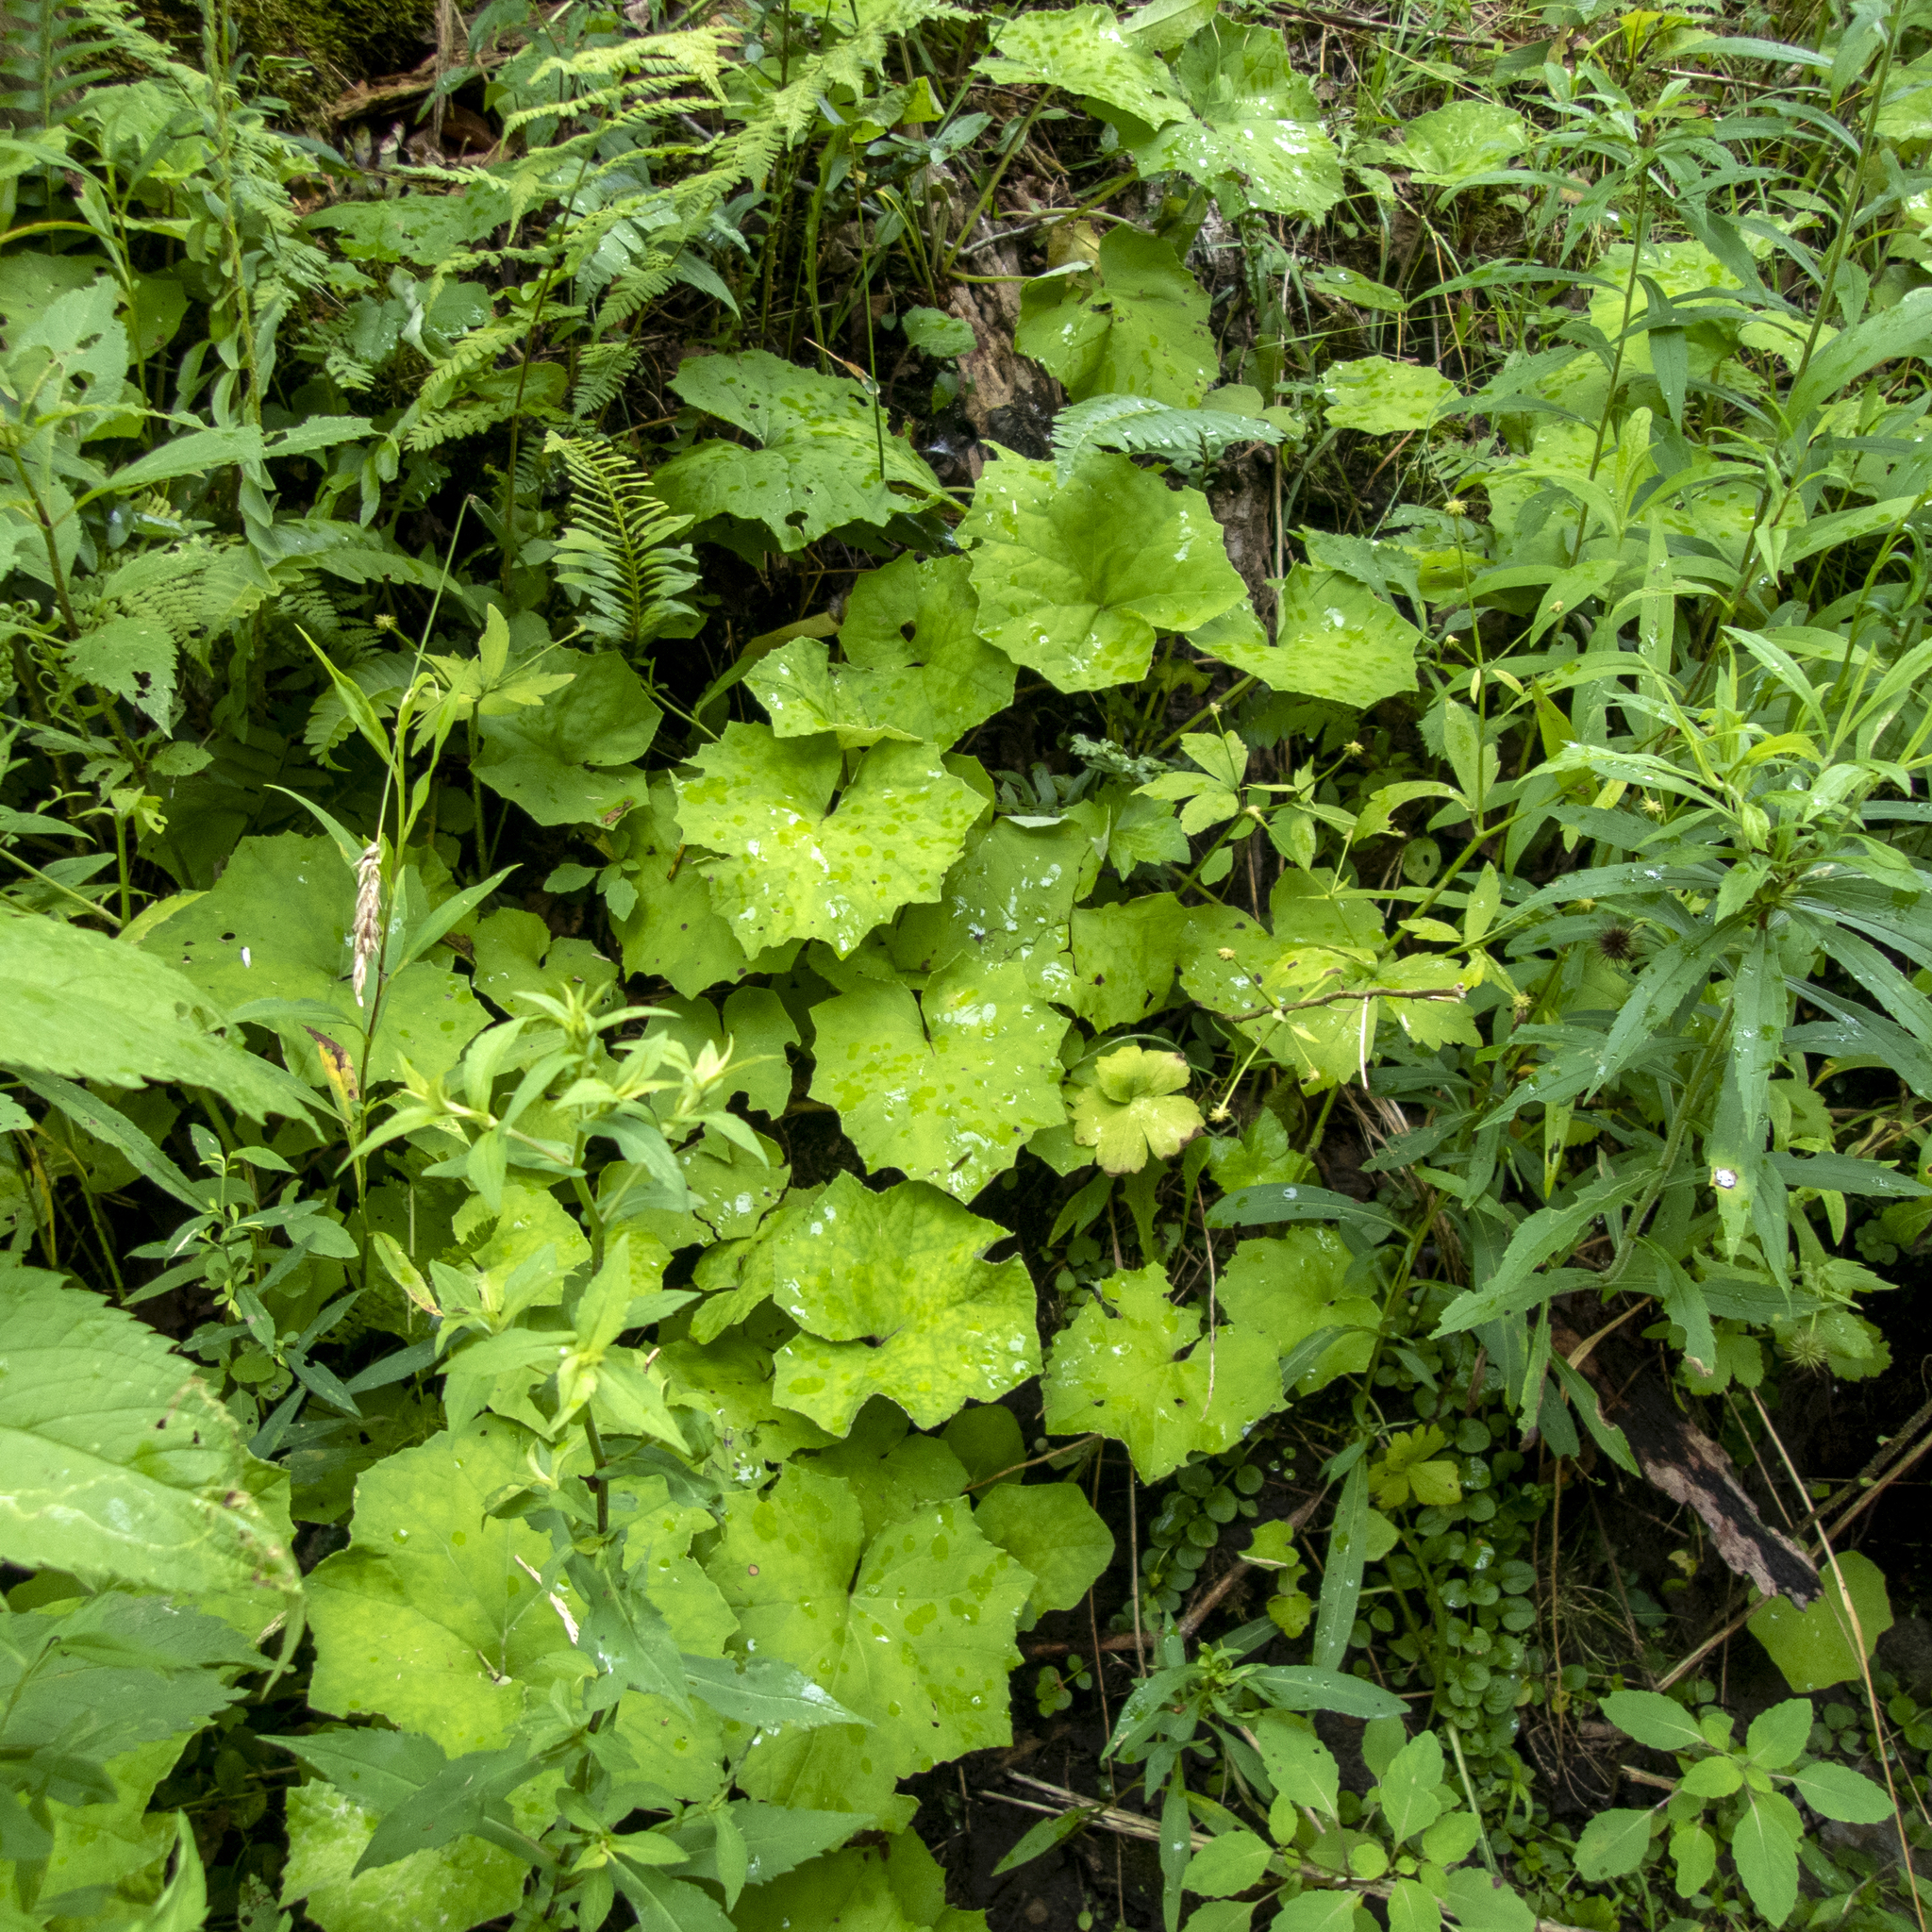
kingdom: Plantae
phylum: Tracheophyta
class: Magnoliopsida
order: Asterales
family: Asteraceae
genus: Tussilago
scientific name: Tussilago farfara
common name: Coltsfoot
